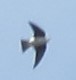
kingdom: Animalia
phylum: Chordata
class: Aves
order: Passeriformes
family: Hirundinidae
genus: Tachycineta
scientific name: Tachycineta bicolor
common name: Tree swallow
